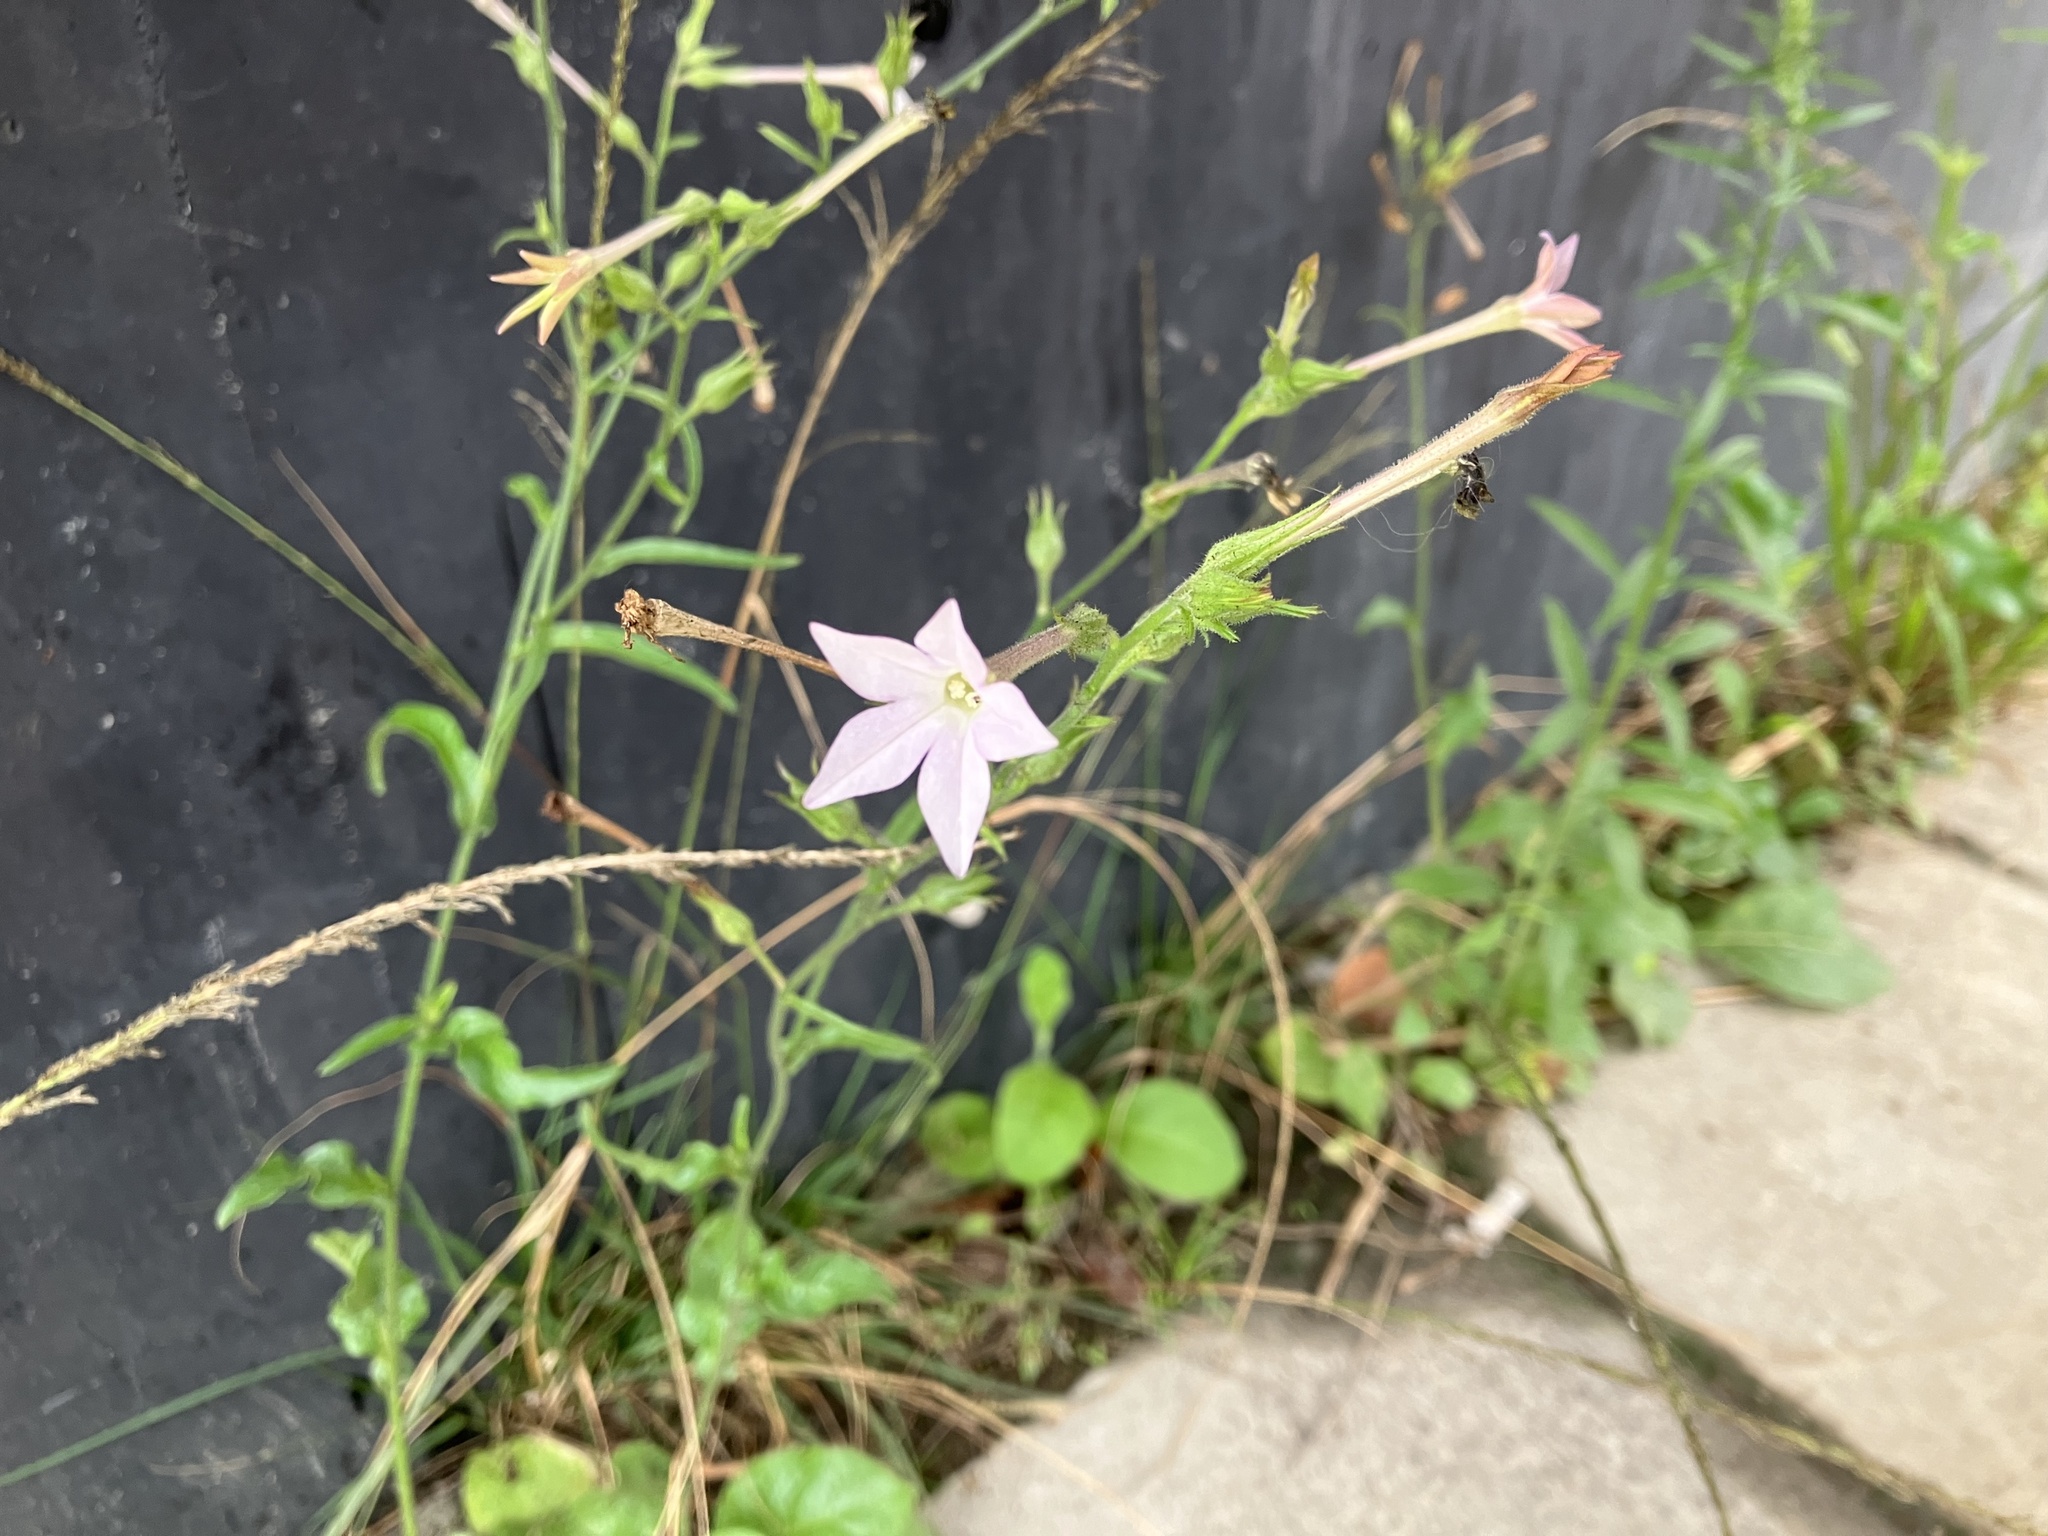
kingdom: Plantae
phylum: Tracheophyta
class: Magnoliopsida
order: Solanales
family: Solanaceae
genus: Nicotiana
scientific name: Nicotiana plumbaginifolia
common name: Tex-mex tobacco
